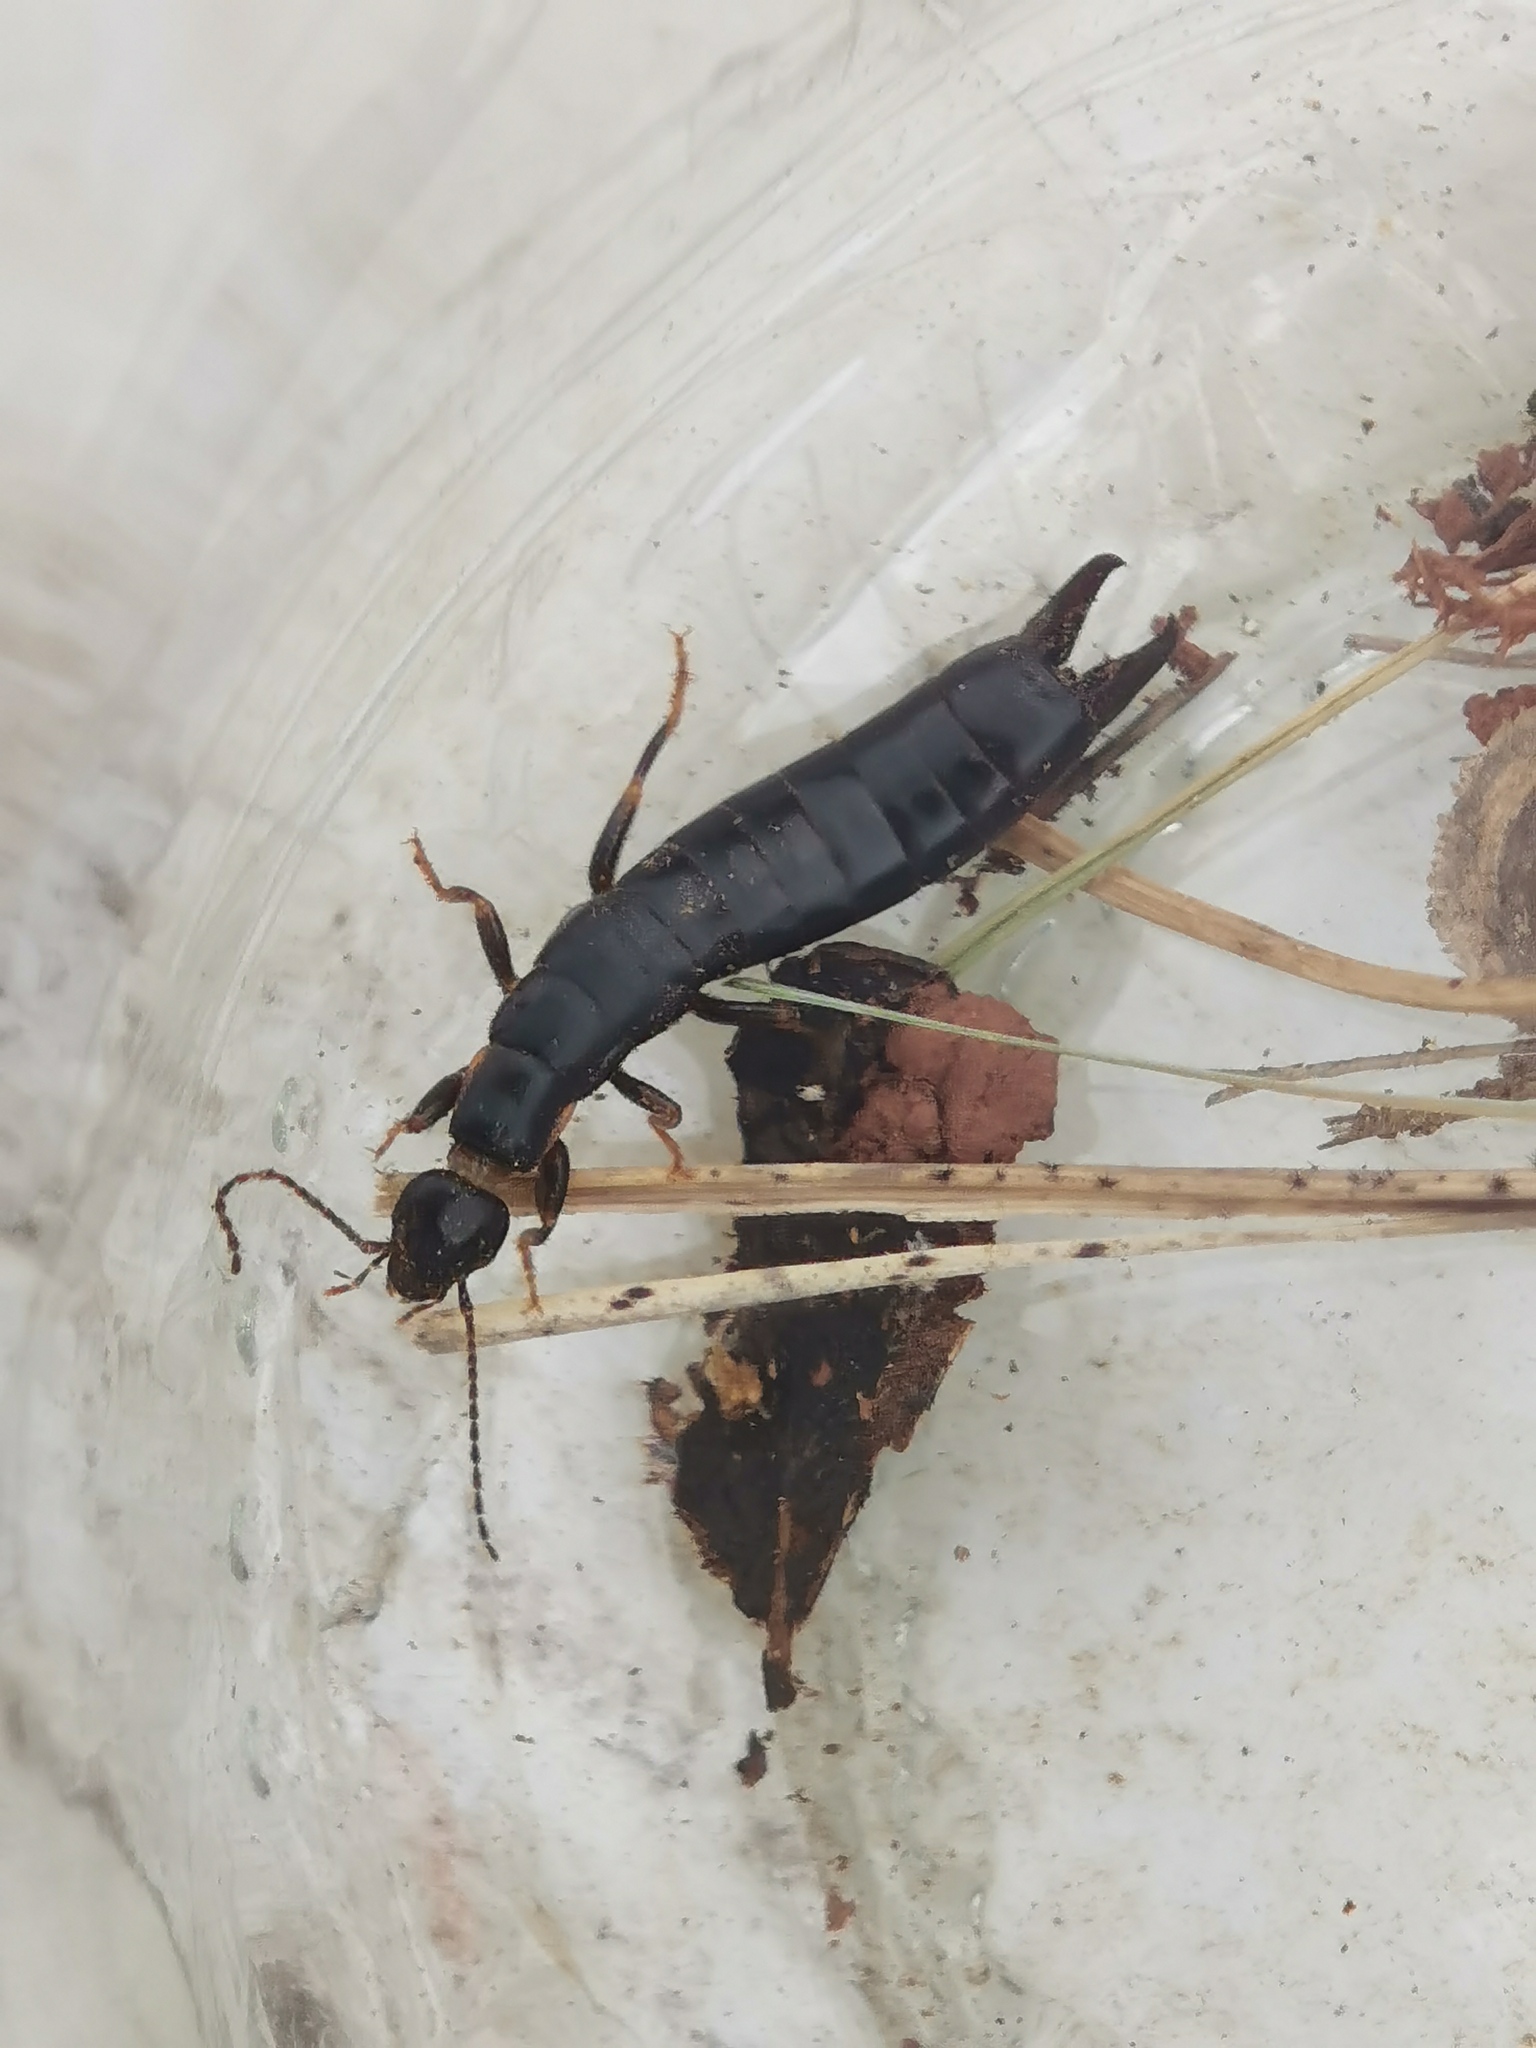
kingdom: Animalia
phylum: Arthropoda
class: Insecta
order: Dermaptera
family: Anisolabididae
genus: Euborellia
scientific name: Euborellia moesta
